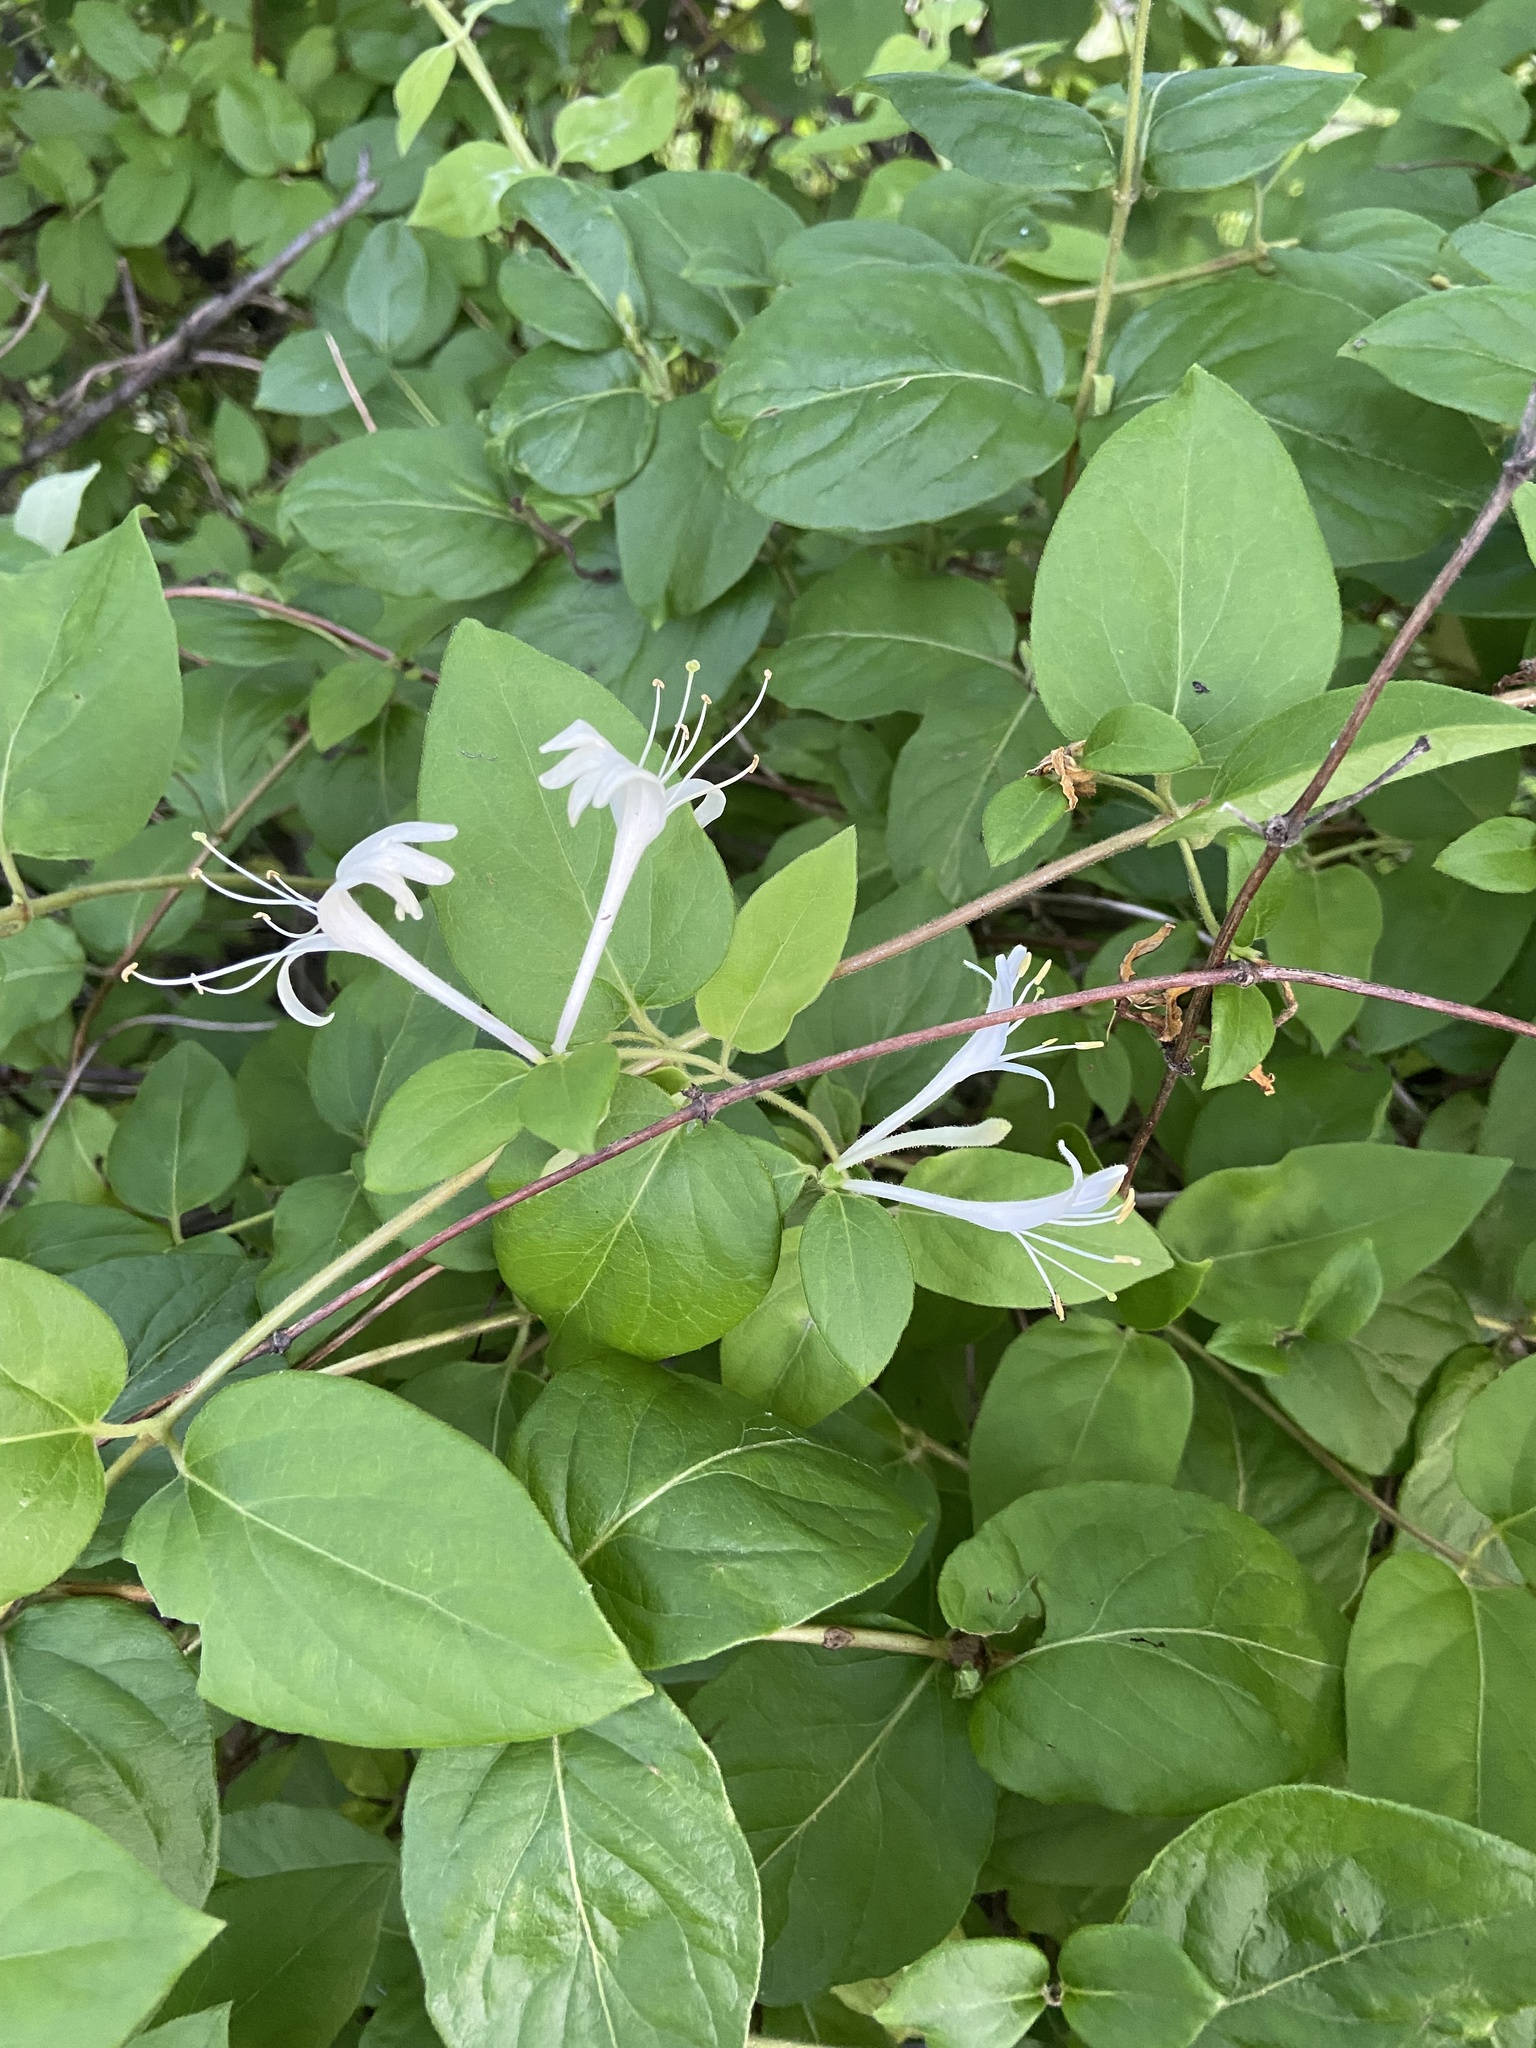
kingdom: Plantae
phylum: Tracheophyta
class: Magnoliopsida
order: Dipsacales
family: Caprifoliaceae
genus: Lonicera
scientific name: Lonicera japonica
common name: Japanese honeysuckle
